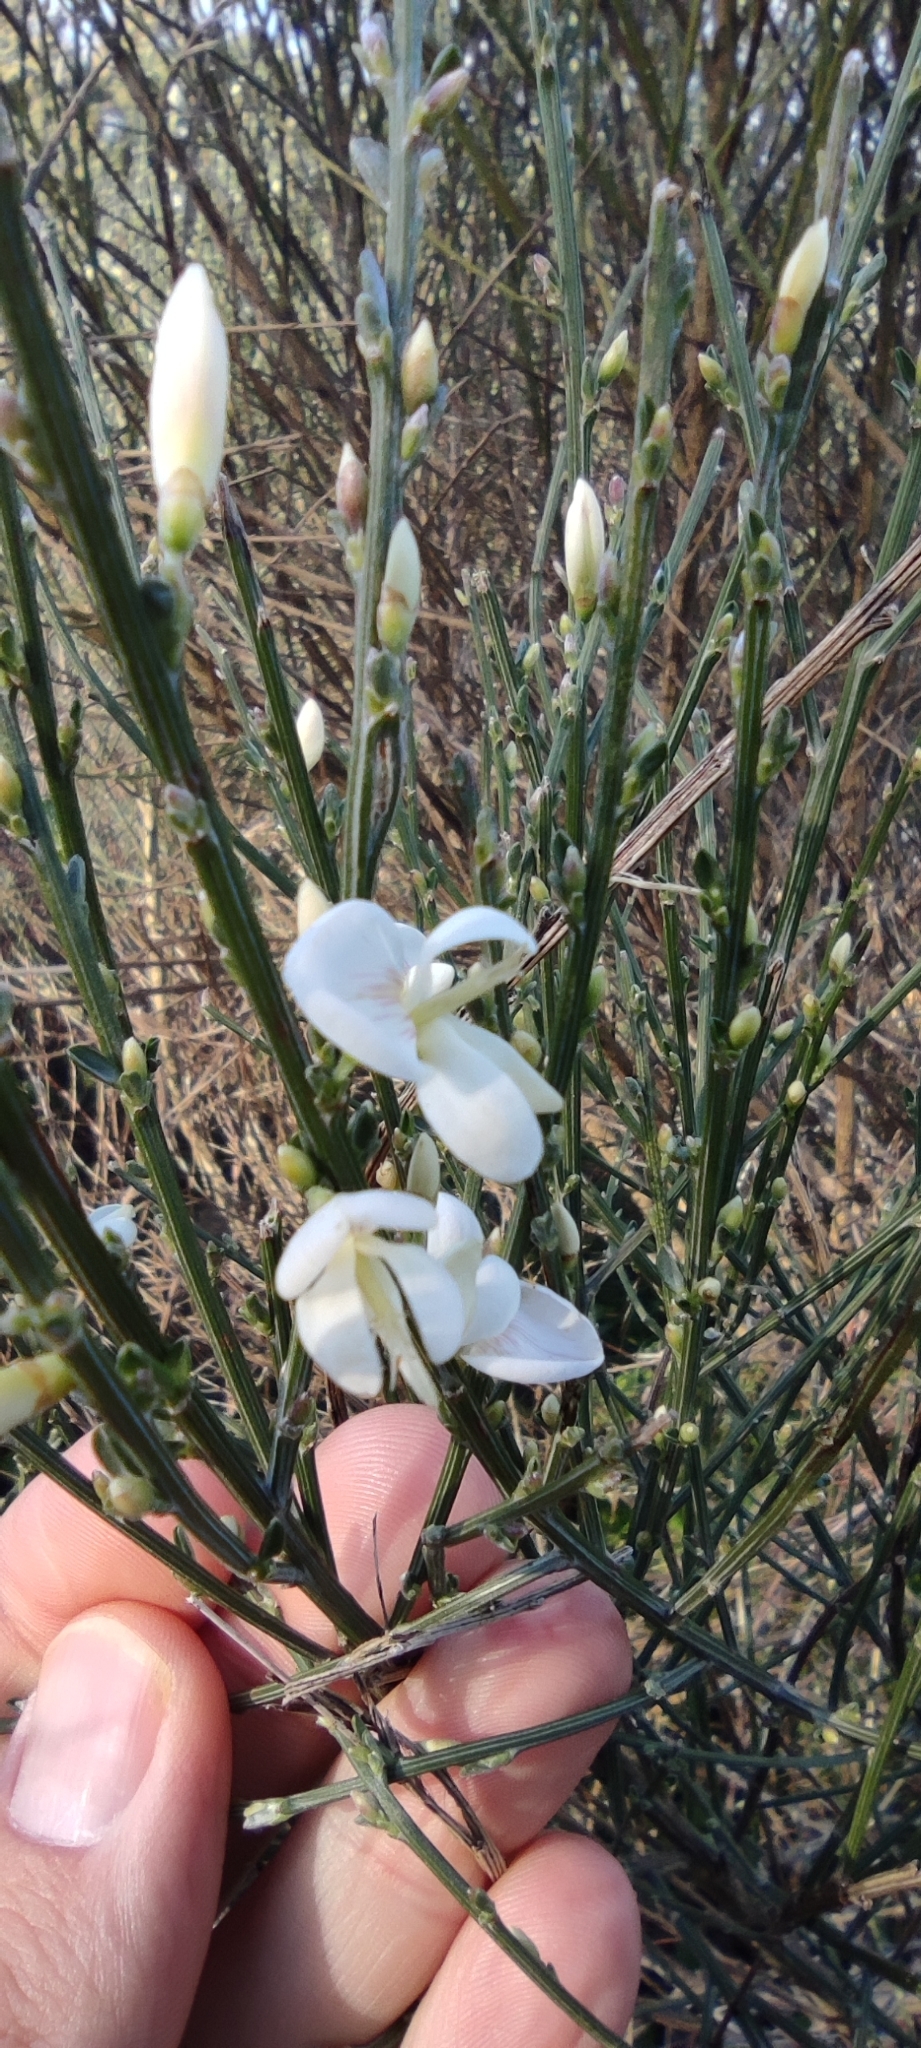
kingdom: Plantae
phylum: Tracheophyta
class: Magnoliopsida
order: Fabales
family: Fabaceae
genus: Cytisus
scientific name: Cytisus multiflorus
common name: White broom
